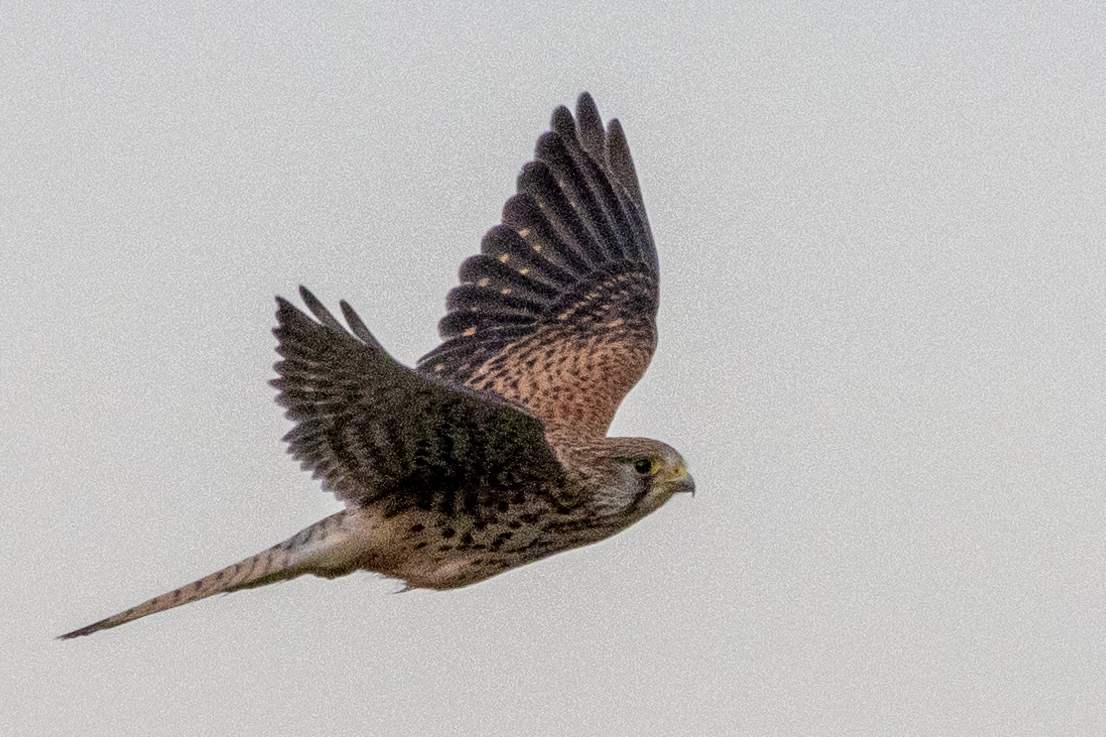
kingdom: Animalia
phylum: Chordata
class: Aves
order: Falconiformes
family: Falconidae
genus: Falco
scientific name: Falco tinnunculus
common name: Common kestrel
